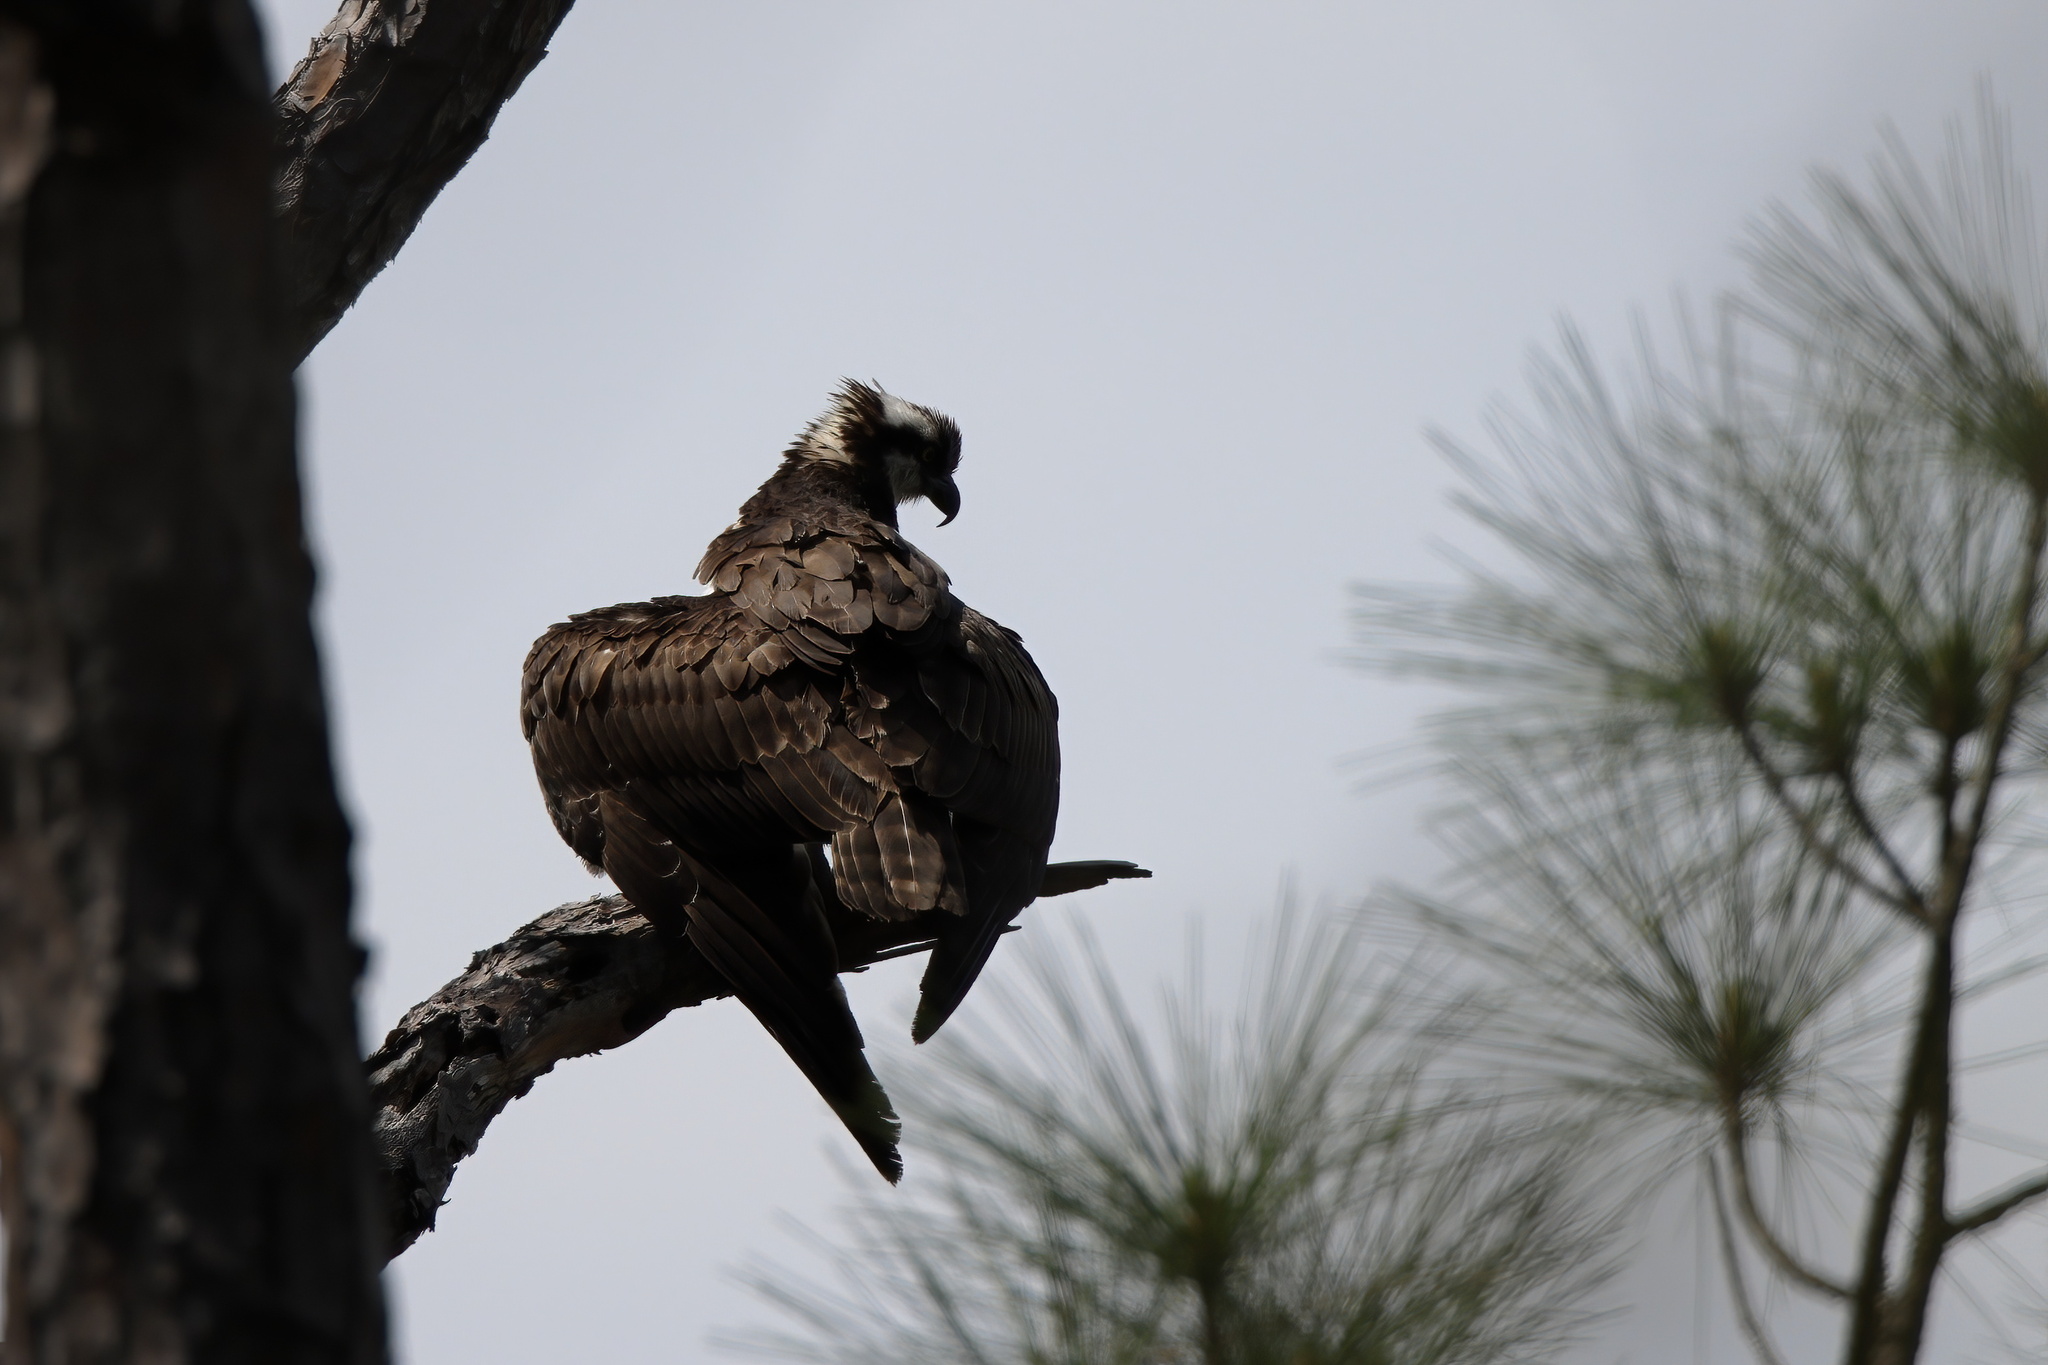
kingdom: Animalia
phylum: Chordata
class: Aves
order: Accipitriformes
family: Pandionidae
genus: Pandion
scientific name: Pandion haliaetus
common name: Osprey
